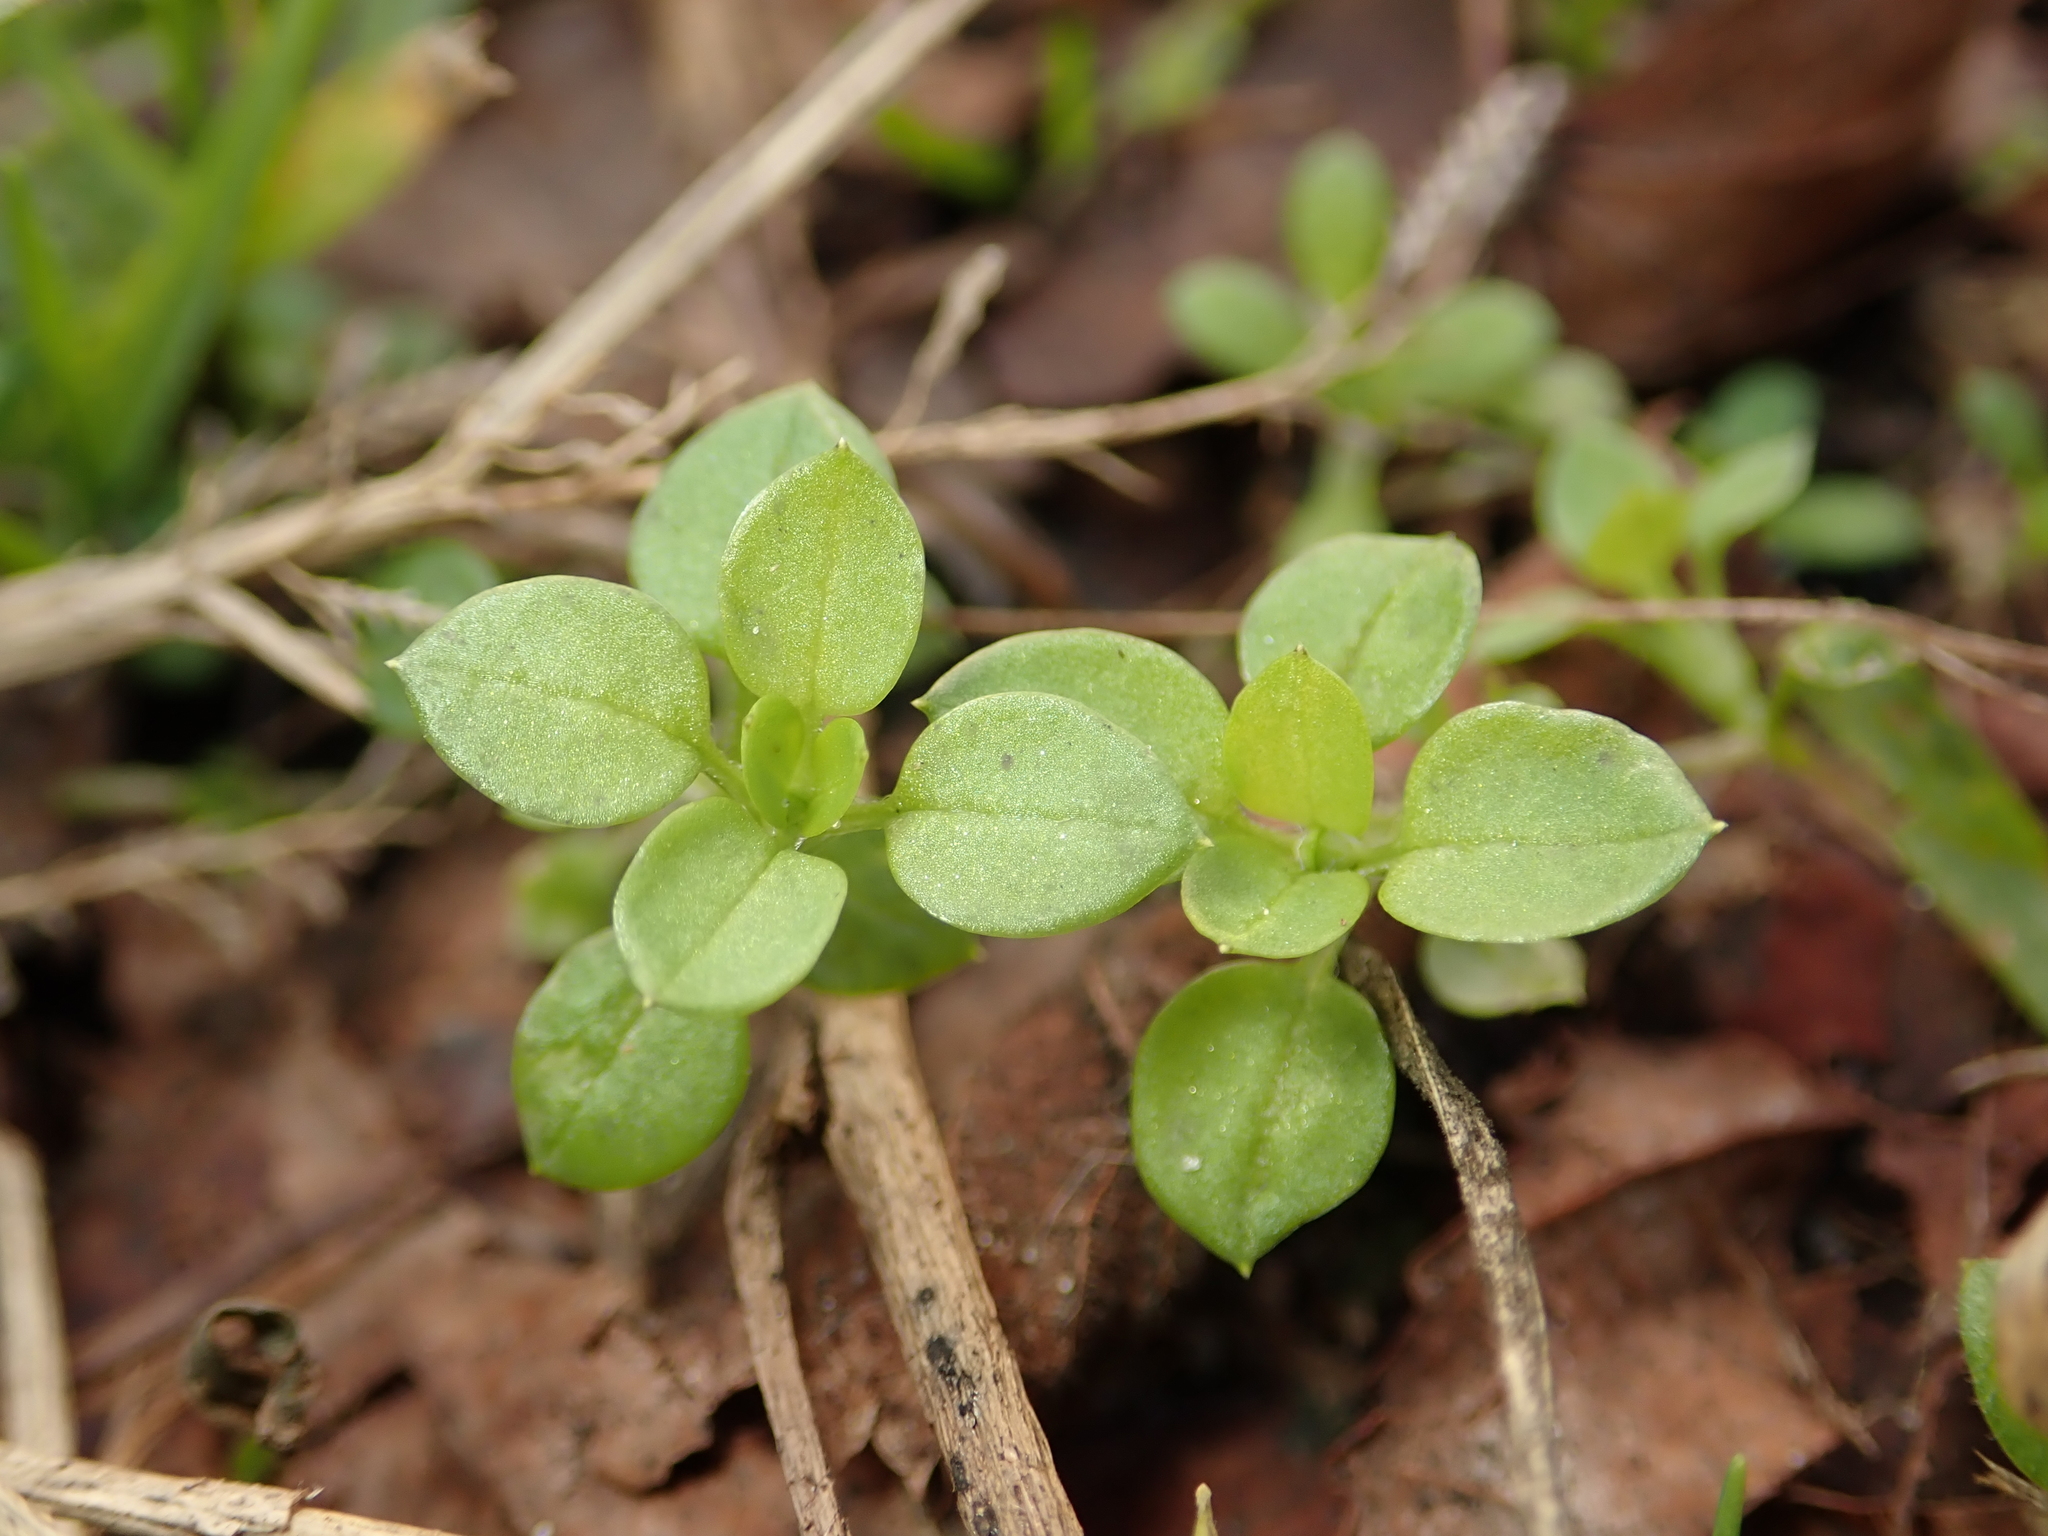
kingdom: Plantae
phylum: Tracheophyta
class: Magnoliopsida
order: Caryophyllales
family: Caryophyllaceae
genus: Stellaria
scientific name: Stellaria media
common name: Common chickweed
